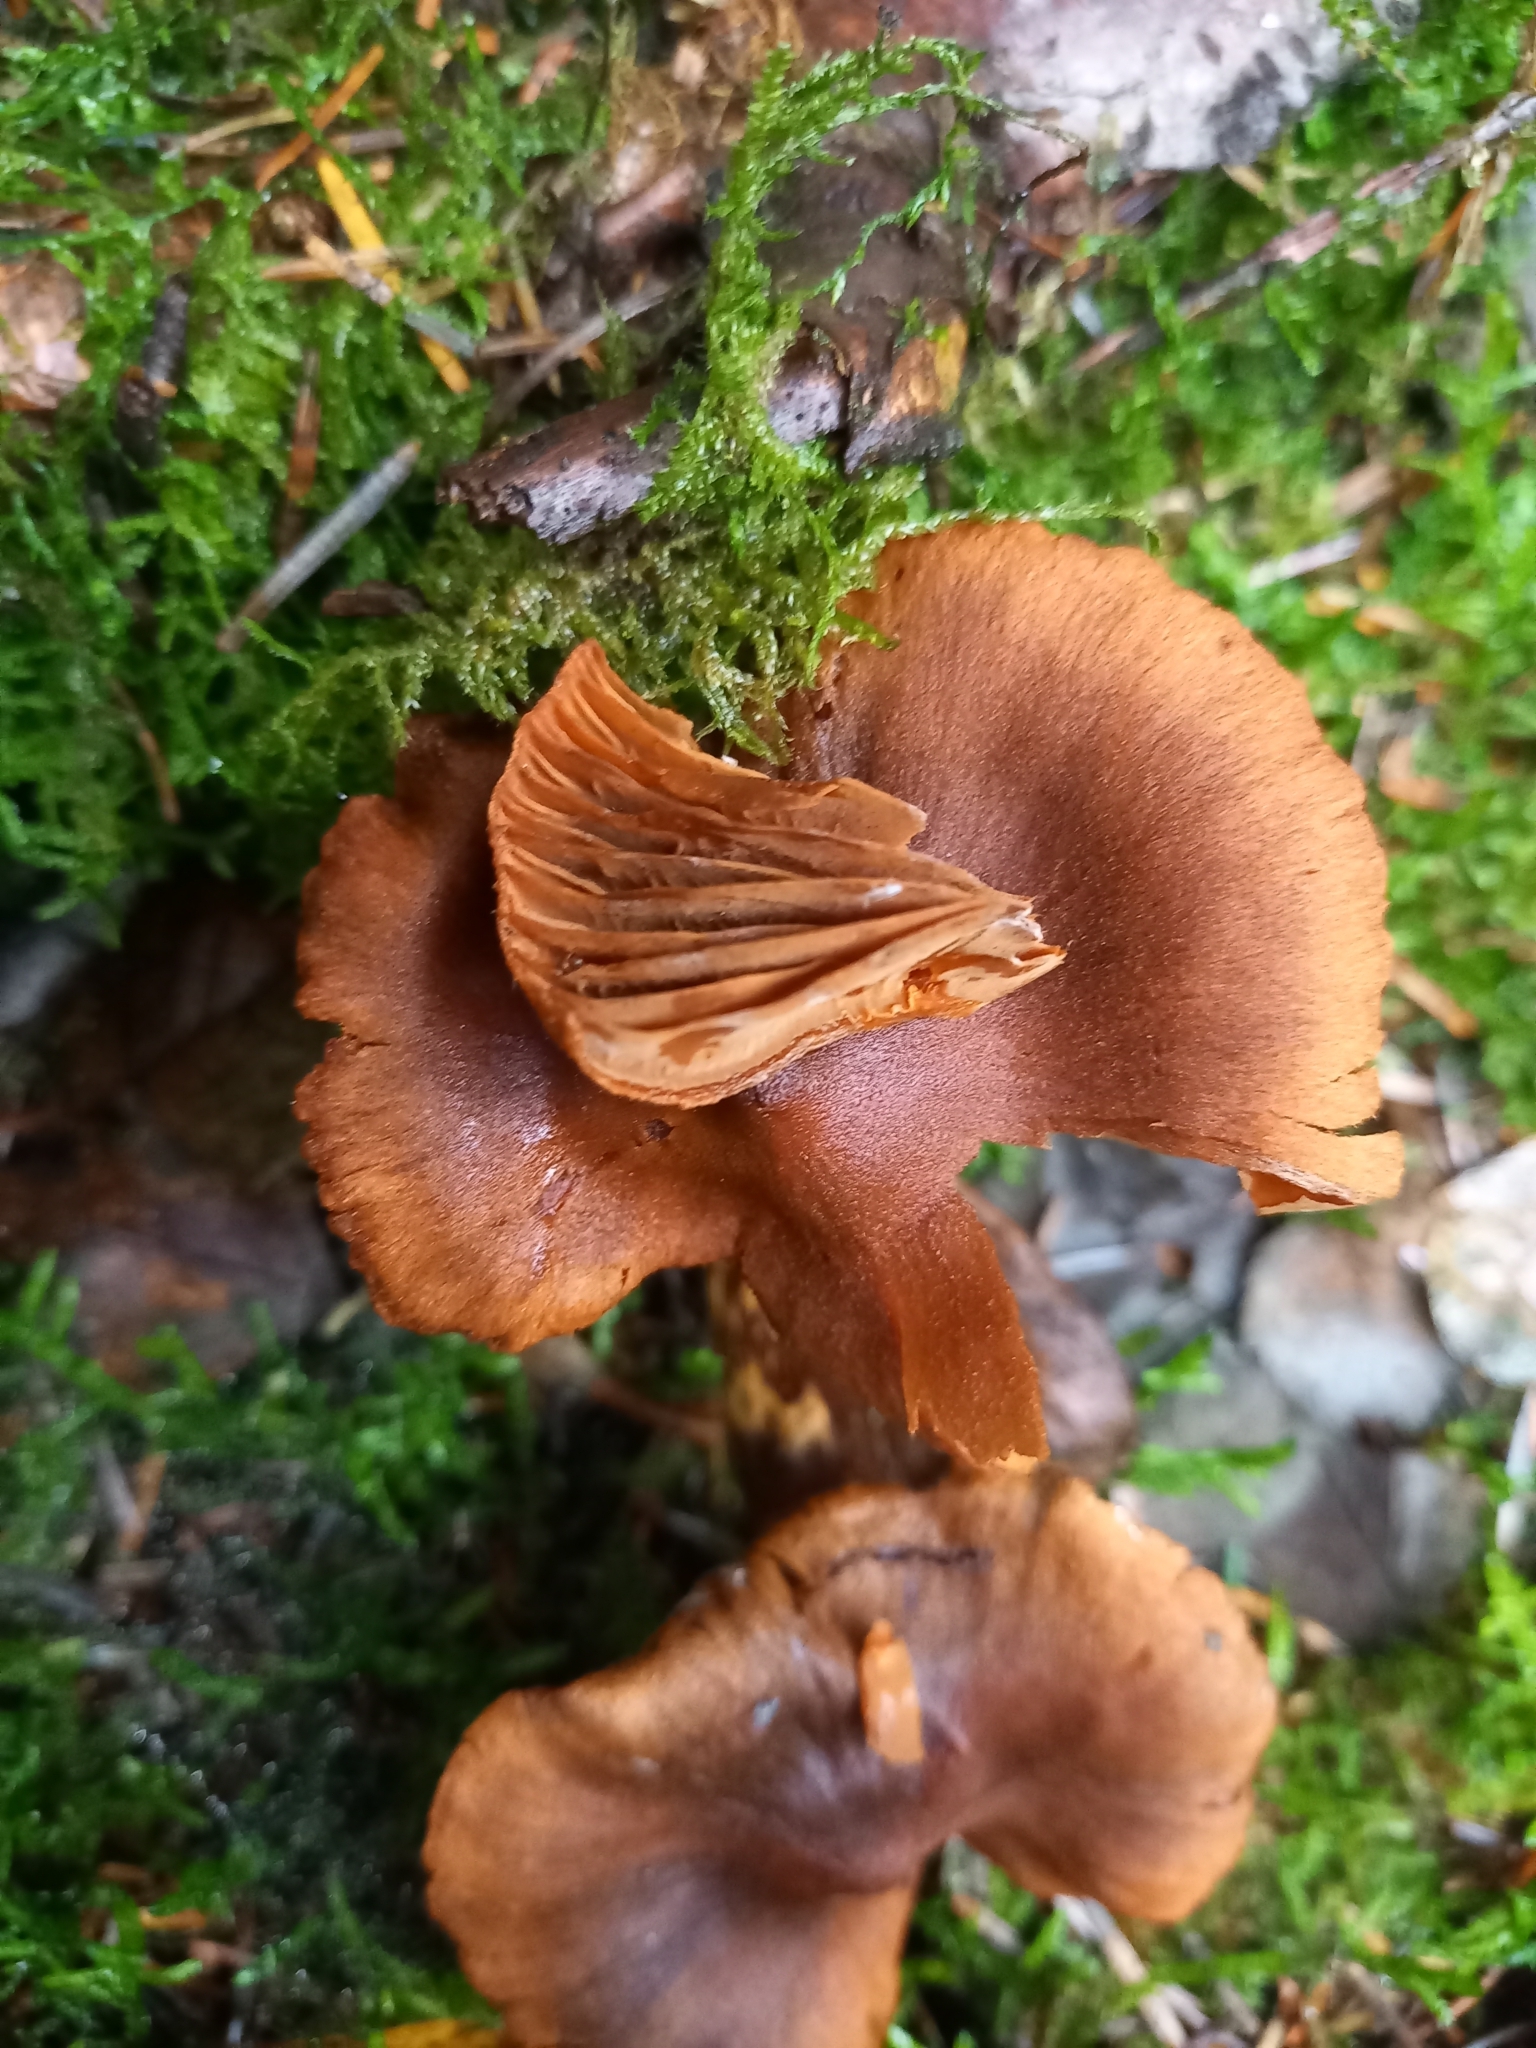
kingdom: Fungi
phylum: Basidiomycota
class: Agaricomycetes
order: Agaricales
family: Cortinariaceae
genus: Cortinarius
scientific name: Cortinarius rubellus
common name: Deadly webcap
